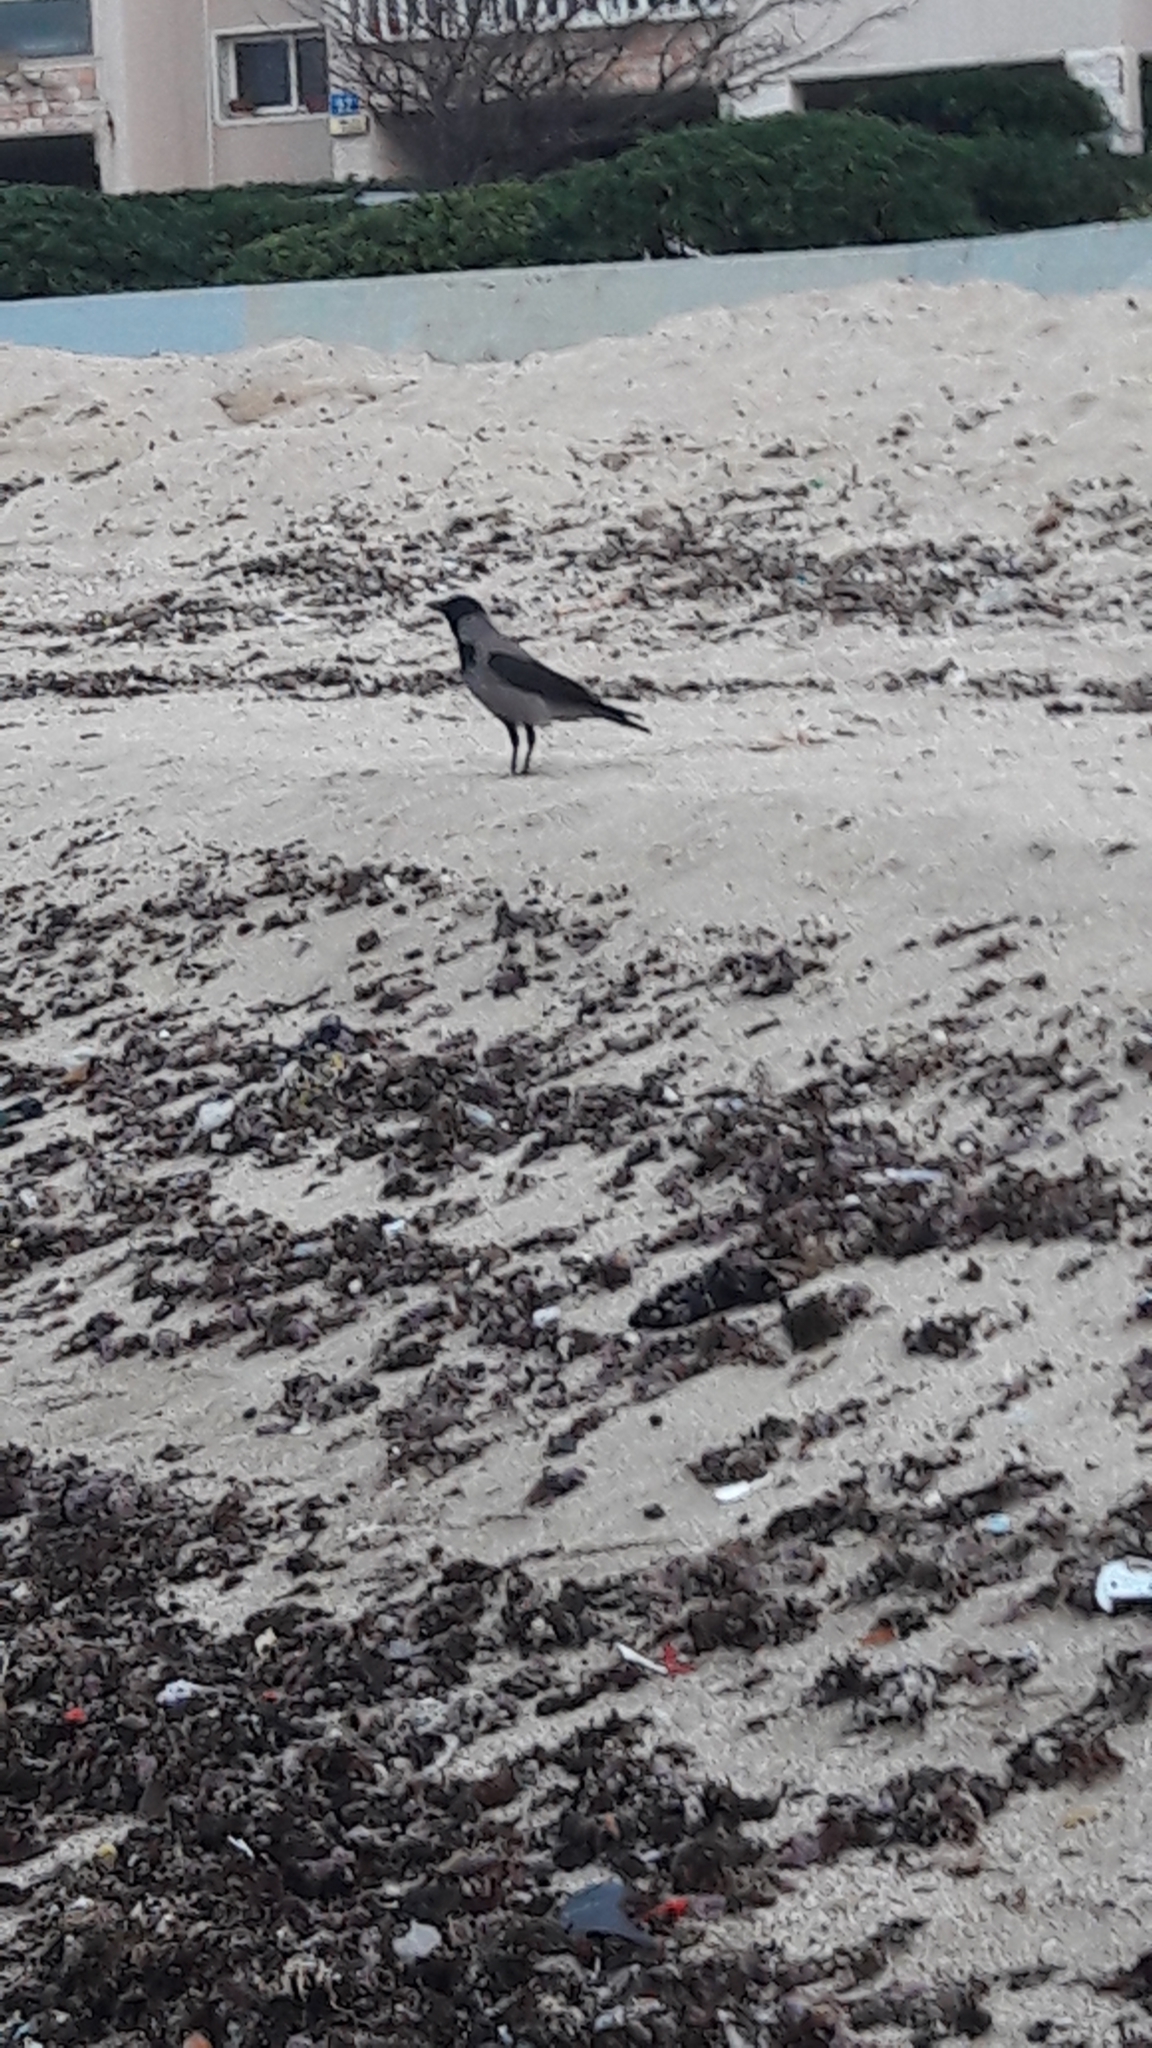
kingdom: Animalia
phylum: Chordata
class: Aves
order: Passeriformes
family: Corvidae
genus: Corvus
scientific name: Corvus cornix
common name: Hooded crow
